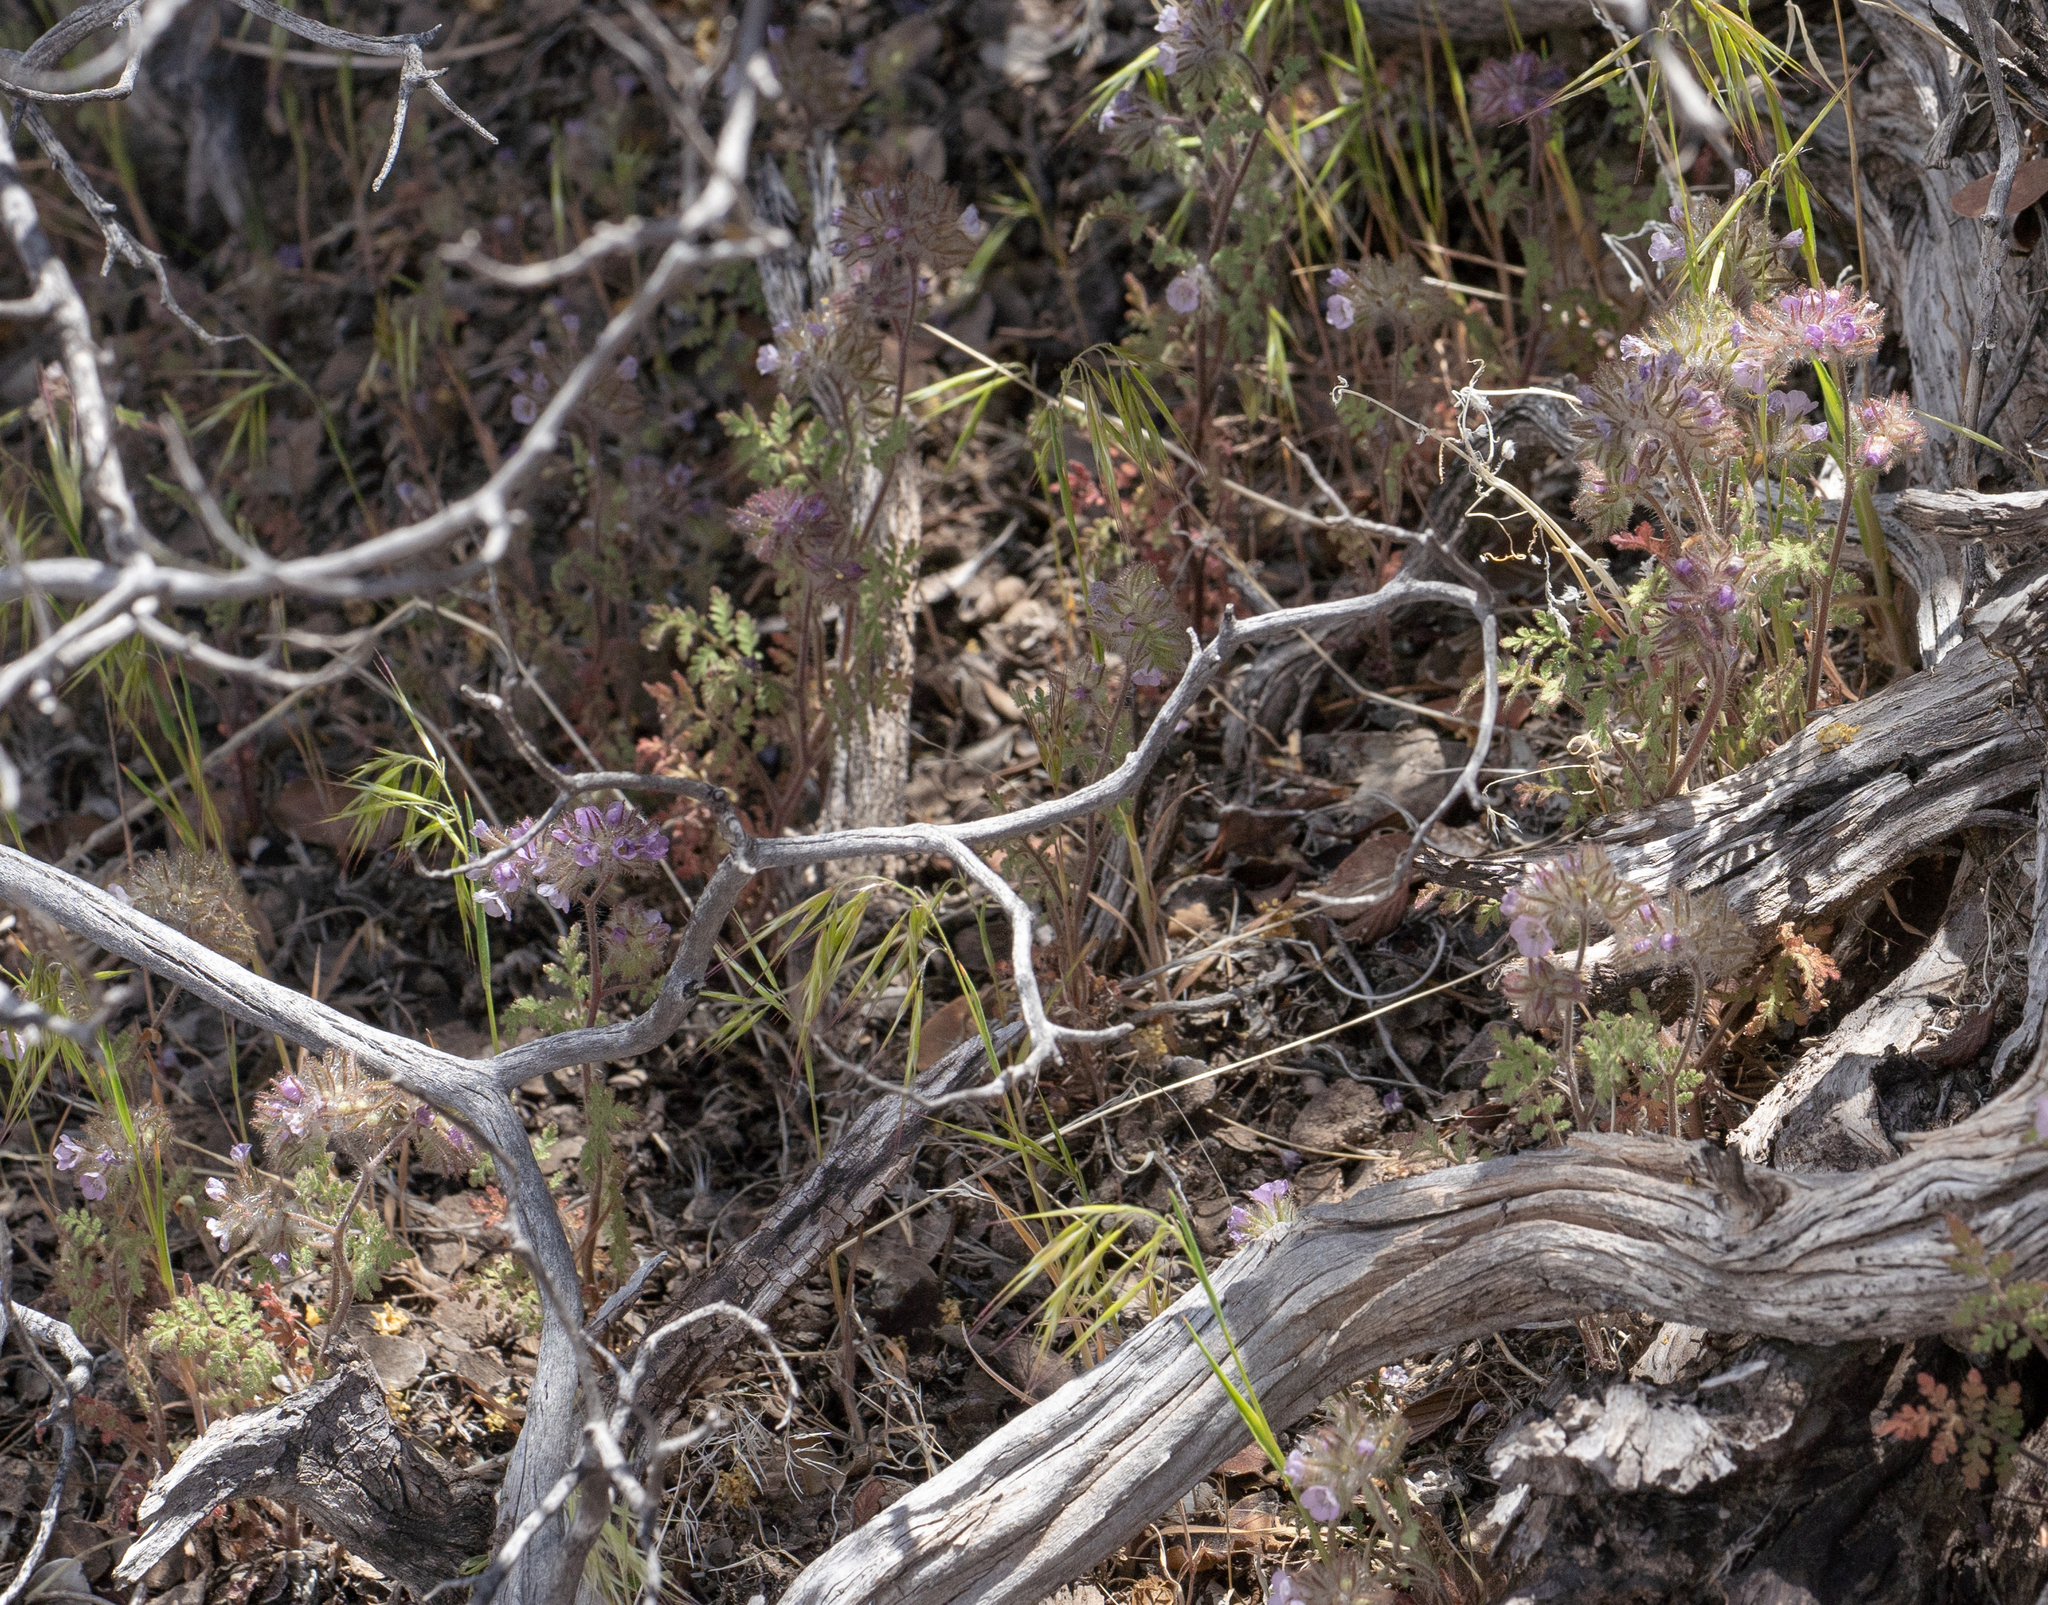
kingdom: Plantae
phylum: Tracheophyta
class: Magnoliopsida
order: Boraginales
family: Hydrophyllaceae
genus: Phacelia
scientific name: Phacelia cryptantha
